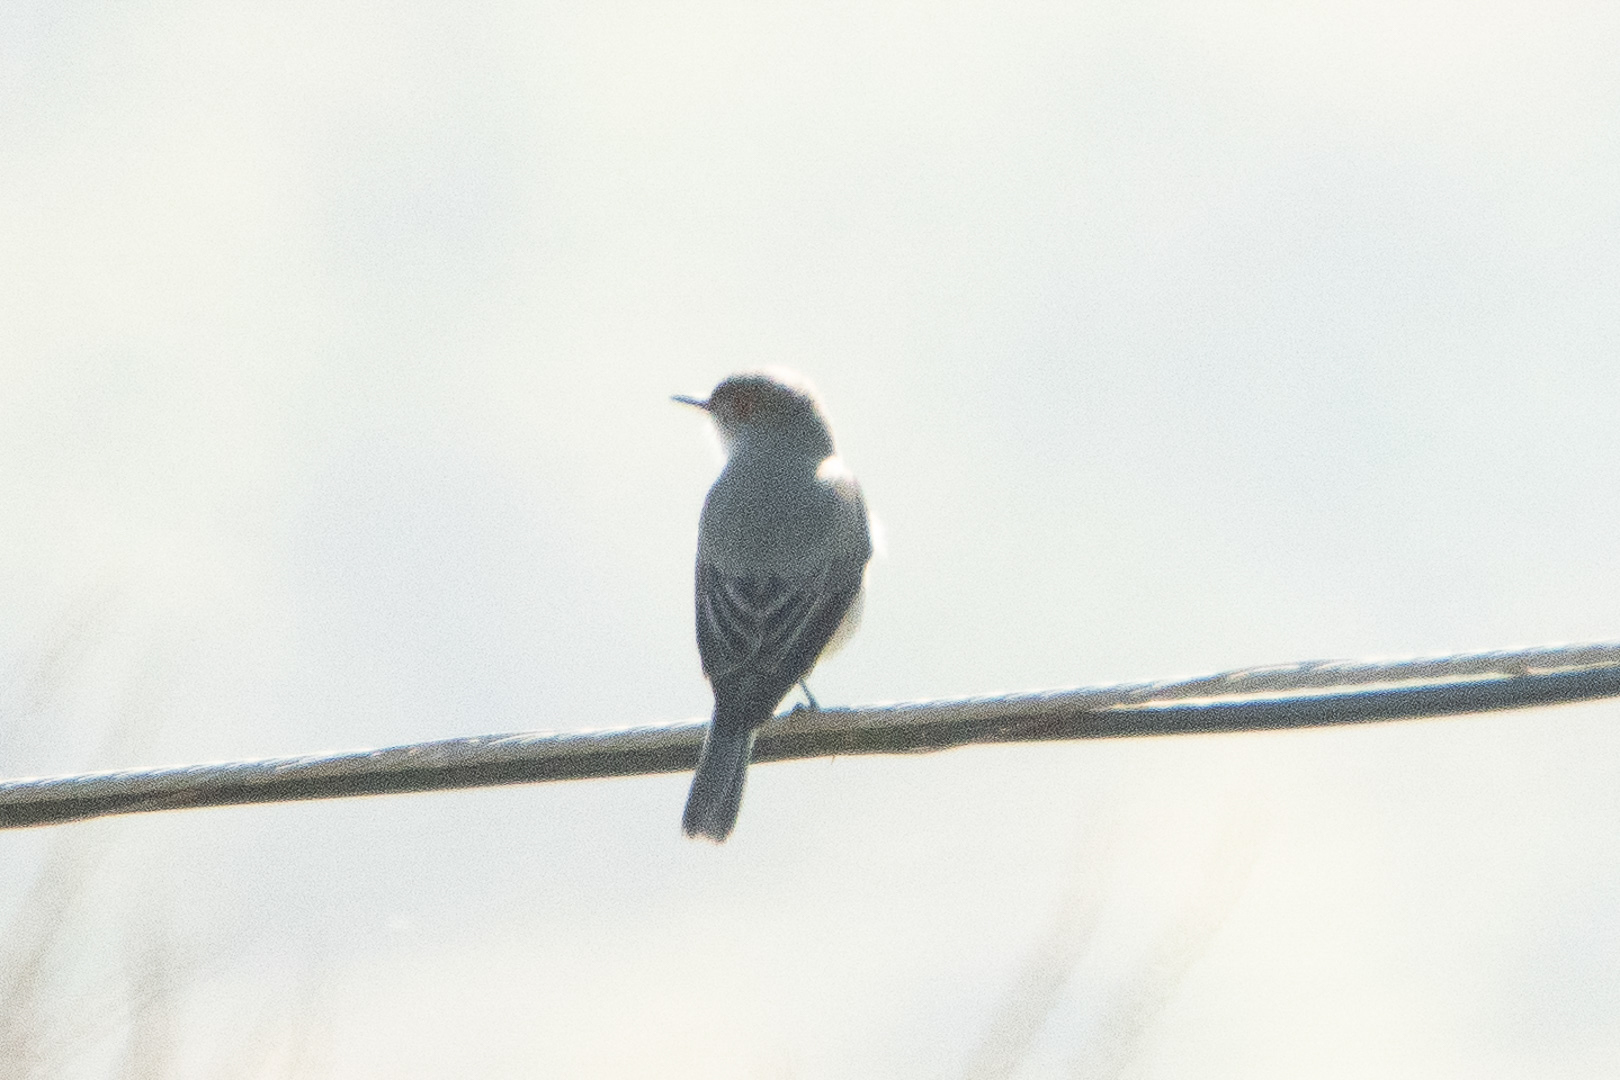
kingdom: Animalia
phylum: Chordata
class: Aves
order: Passeriformes
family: Tyrannidae
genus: Xolmis
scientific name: Xolmis pyrope
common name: Fire-eyed diucon
